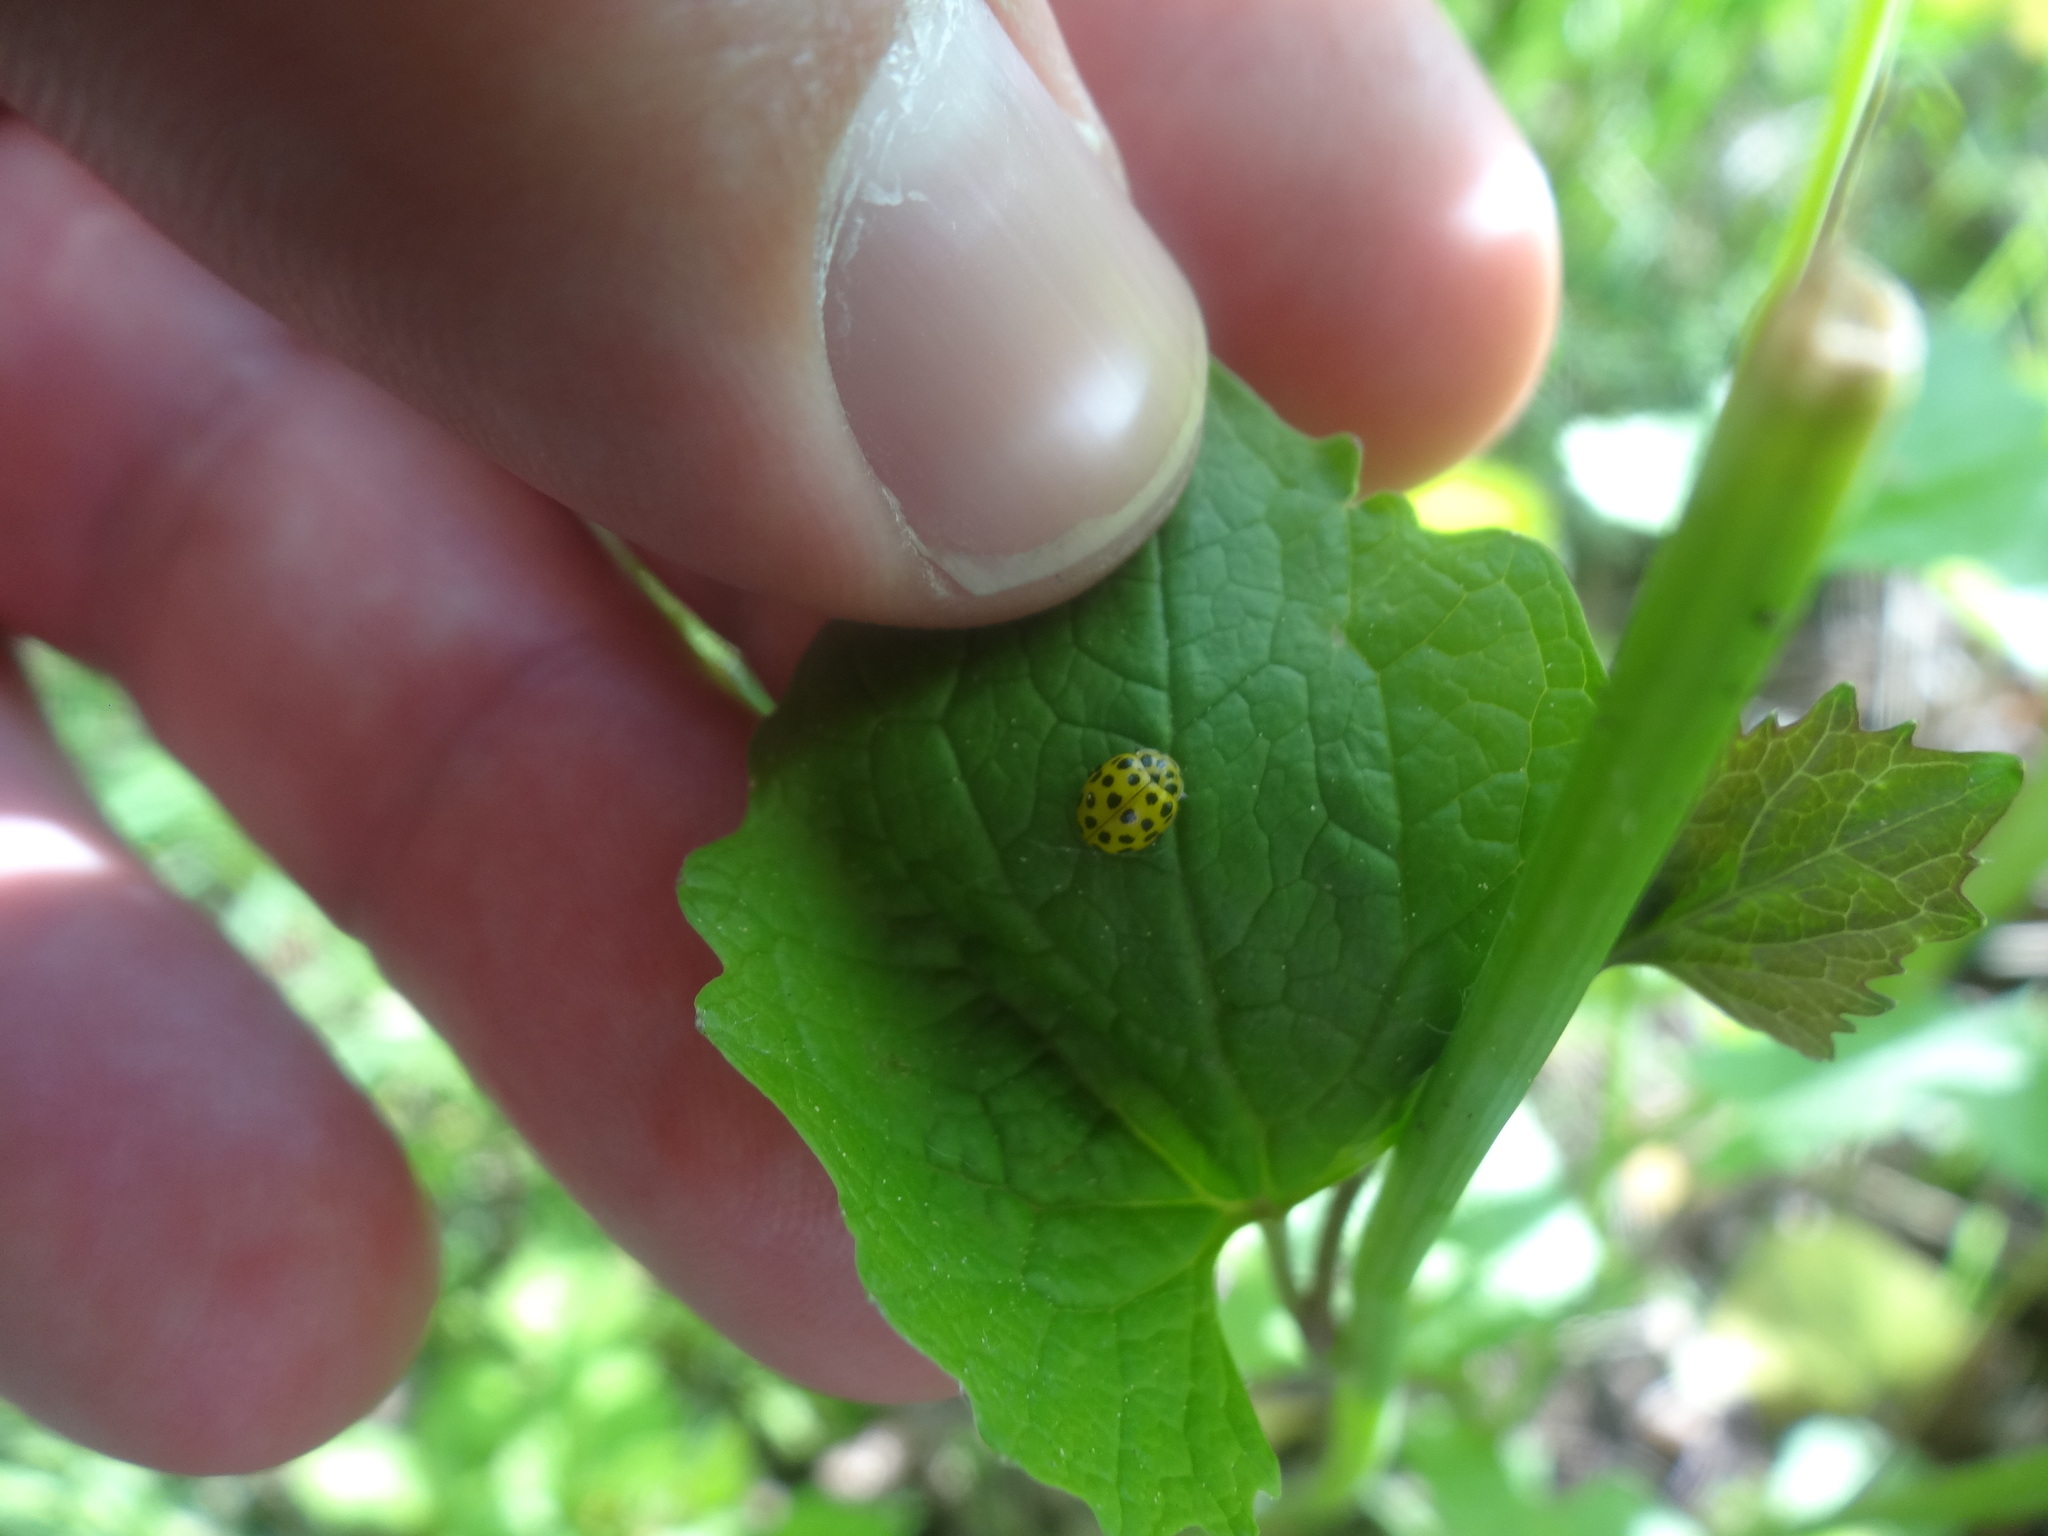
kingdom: Animalia
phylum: Arthropoda
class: Insecta
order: Coleoptera
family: Coccinellidae
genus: Psyllobora
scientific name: Psyllobora vigintiduopunctata
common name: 22-spot ladybird
